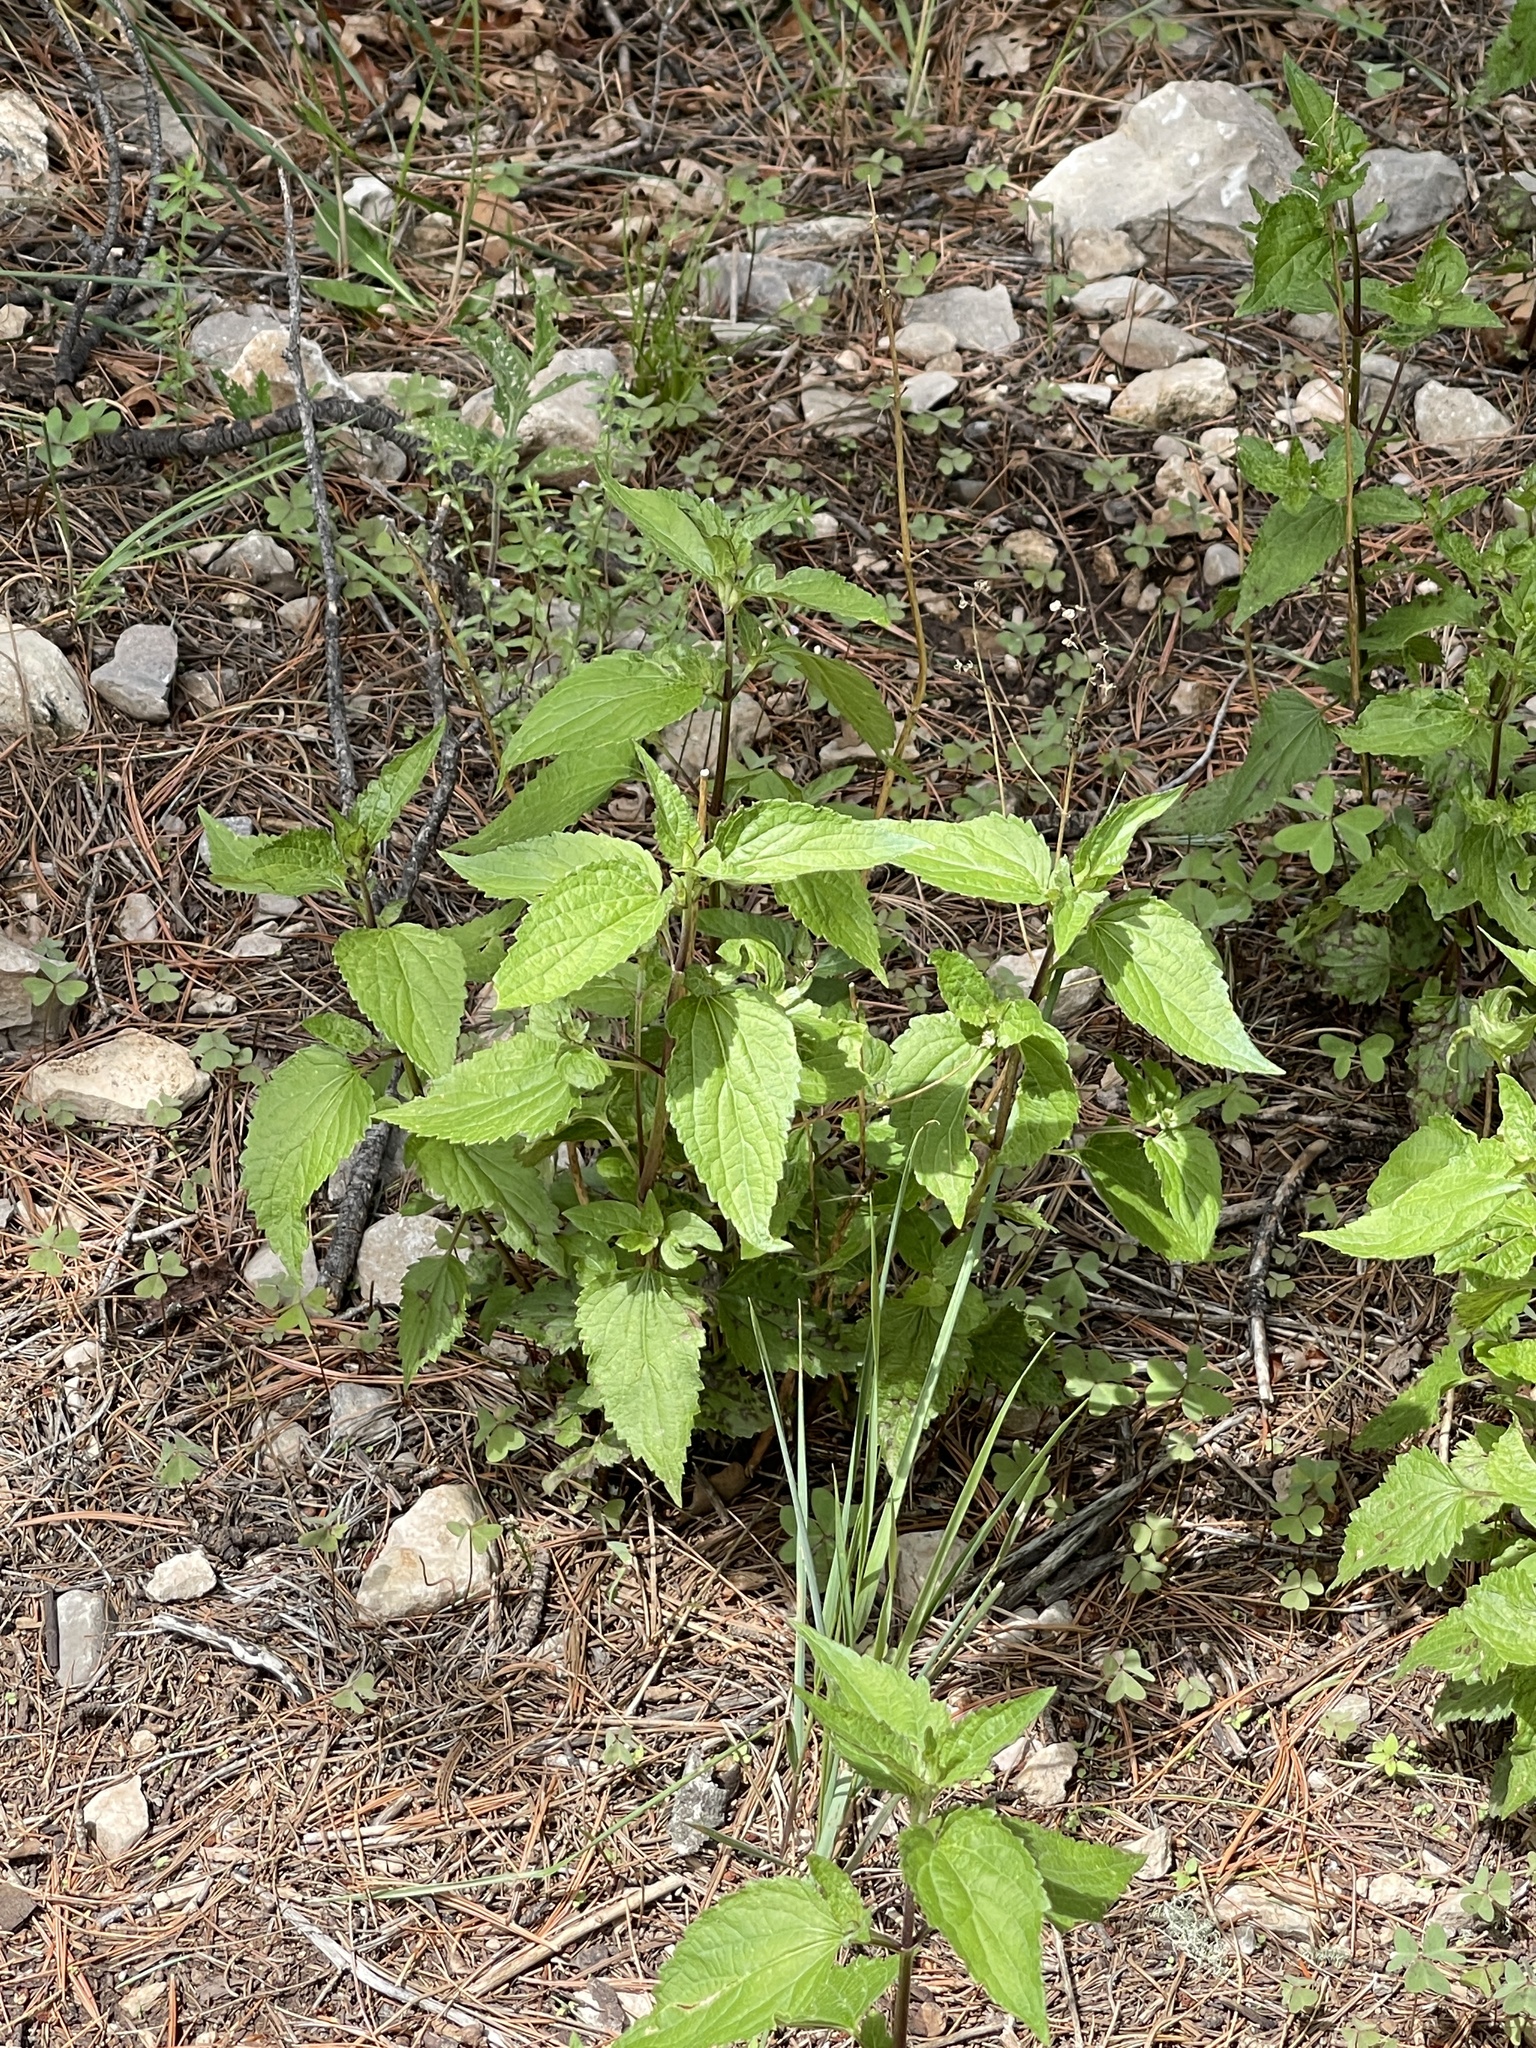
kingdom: Plantae
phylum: Tracheophyta
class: Magnoliopsida
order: Rosales
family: Urticaceae
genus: Urtica
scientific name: Urtica gracilis
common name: Slender stinging nettle
